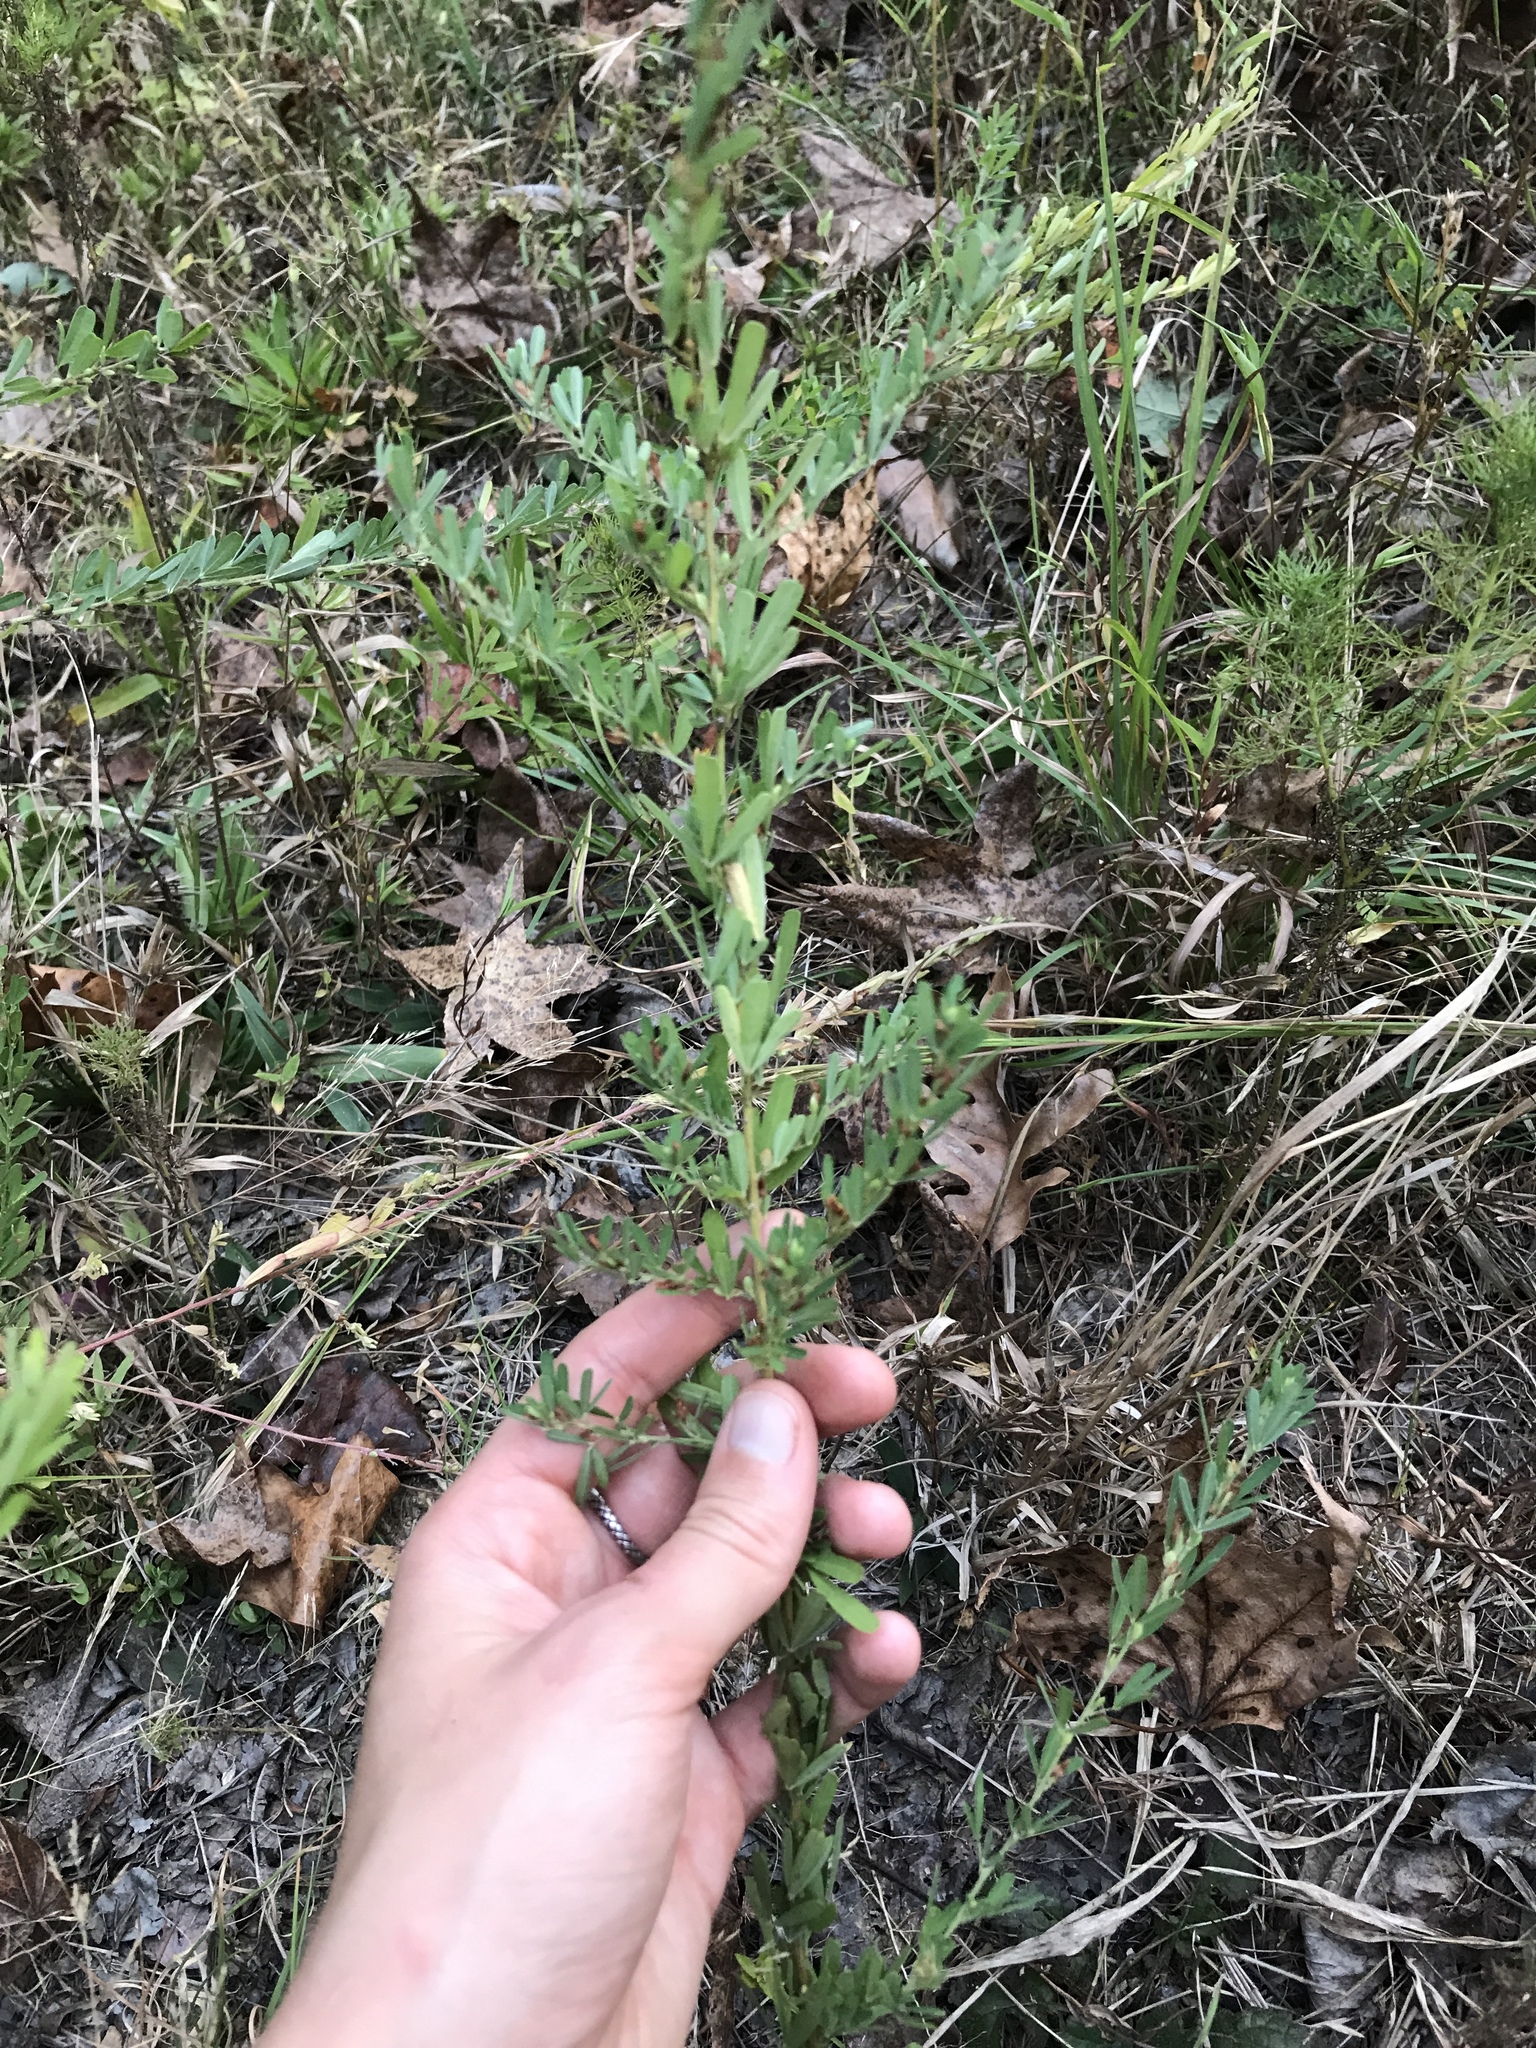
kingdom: Plantae
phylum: Tracheophyta
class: Magnoliopsida
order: Fabales
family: Fabaceae
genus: Lespedeza
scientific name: Lespedeza cuneata
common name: Chinese bush-clover
